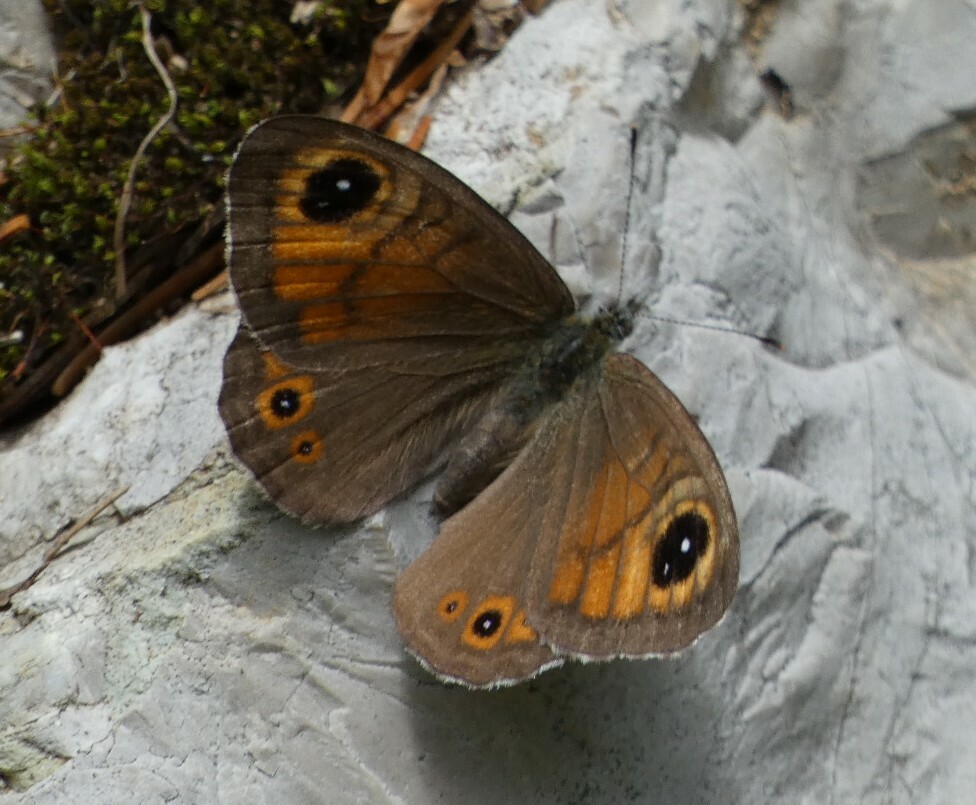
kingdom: Animalia
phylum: Arthropoda
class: Insecta
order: Lepidoptera
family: Nymphalidae
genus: Pararge
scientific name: Pararge Lasiommata maera
